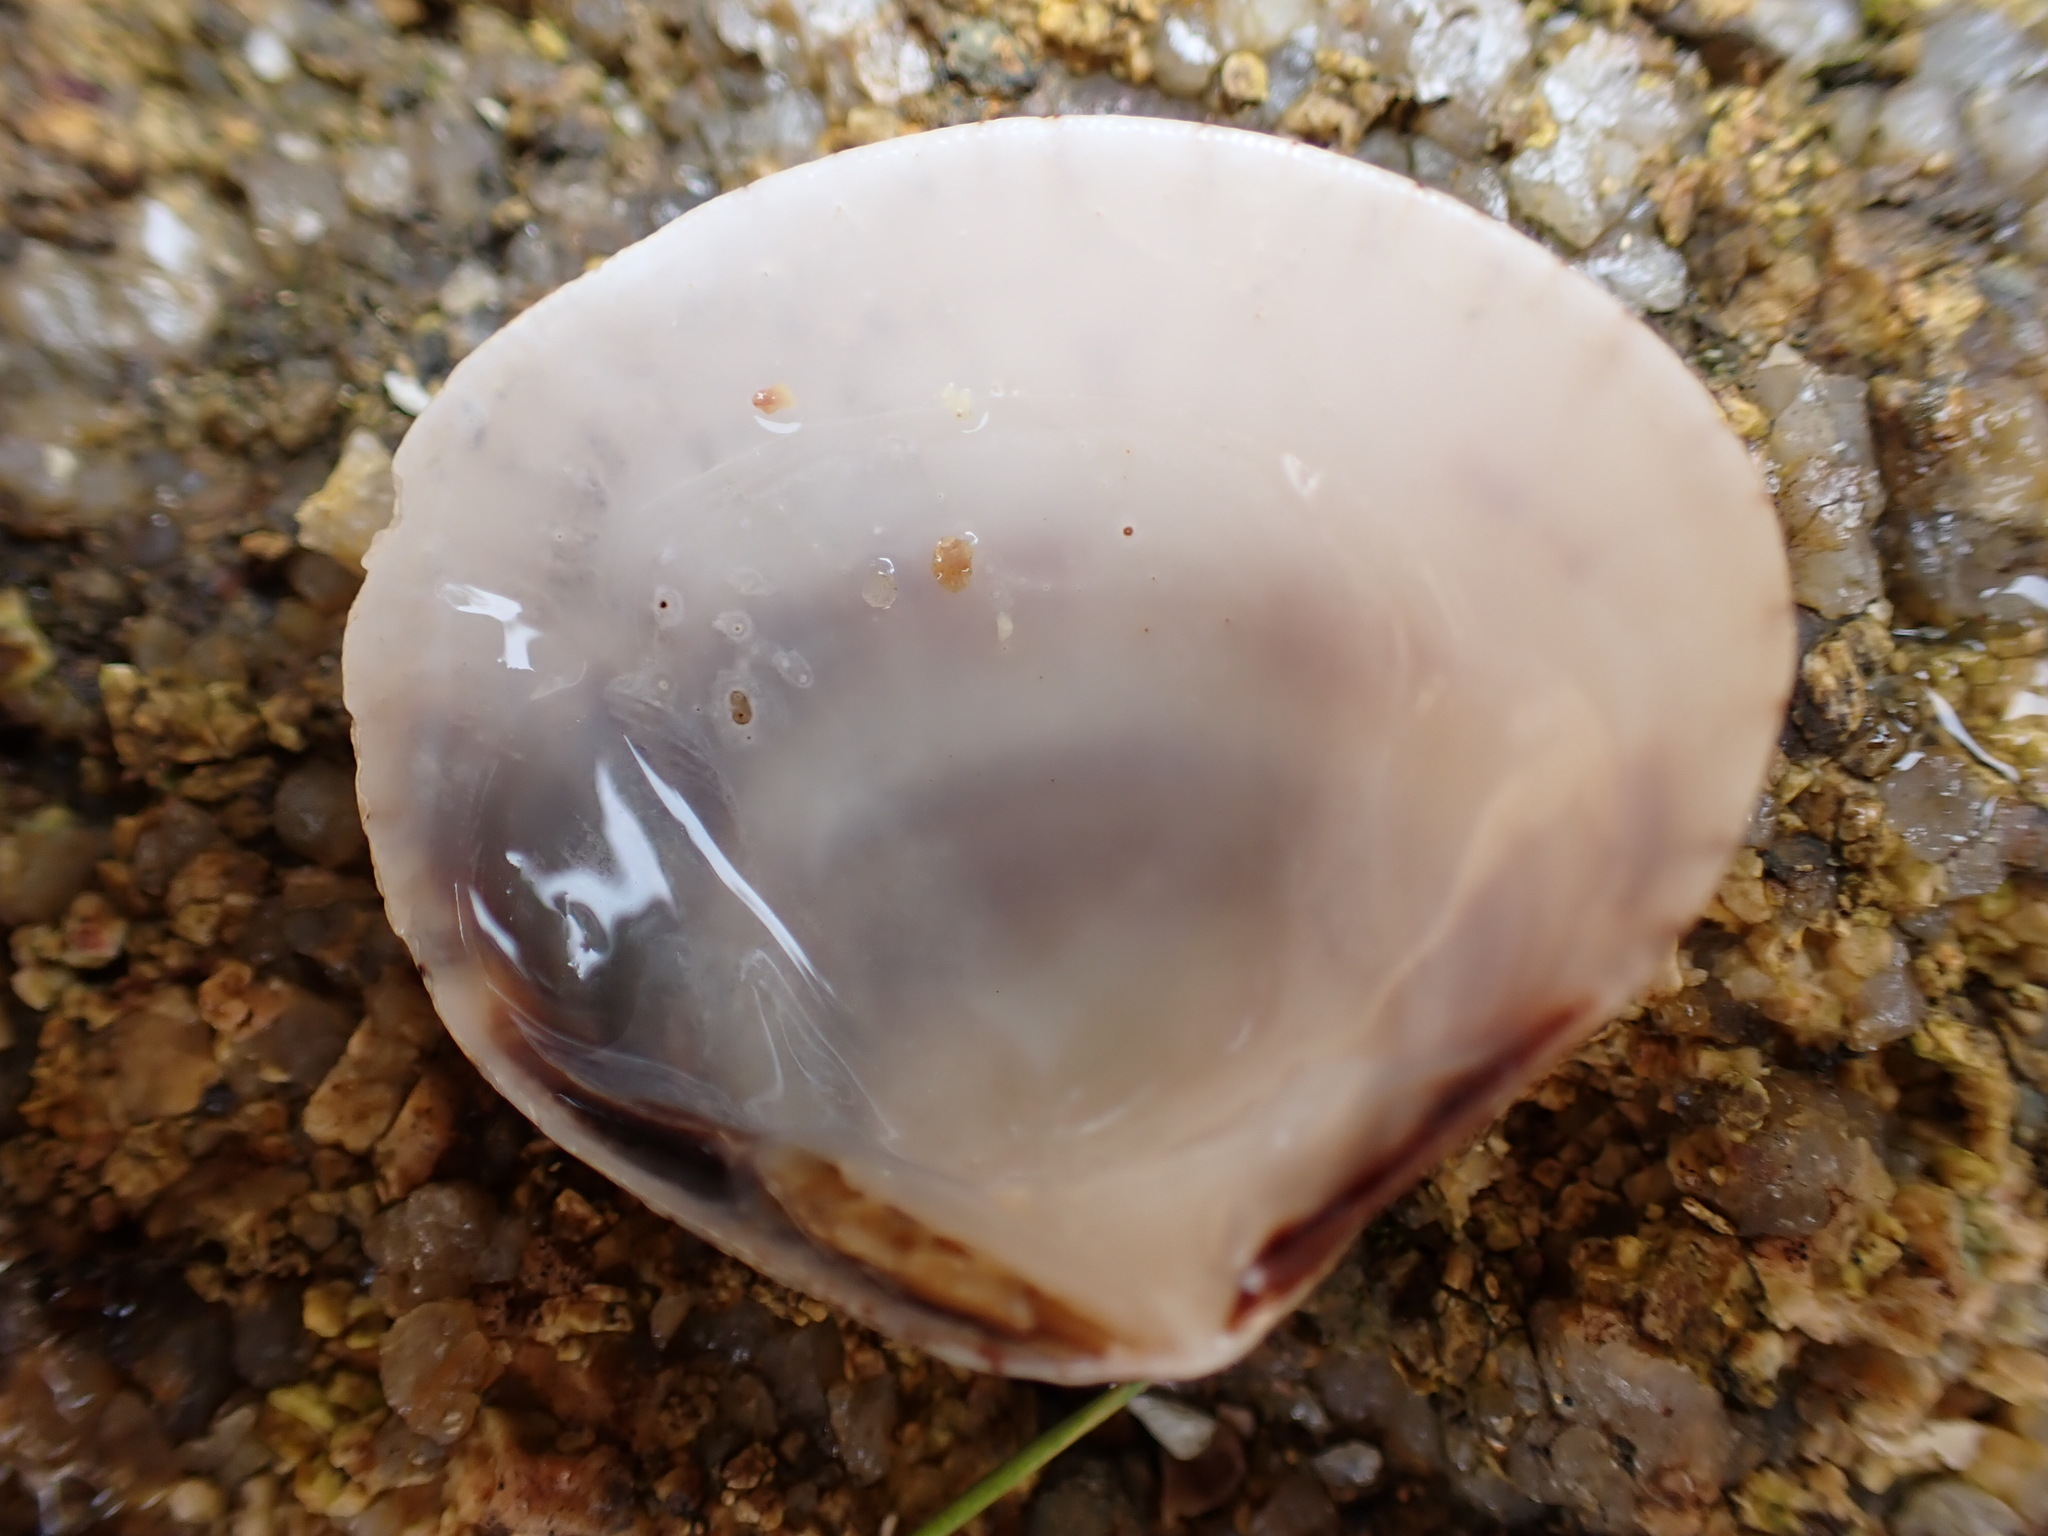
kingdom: Animalia
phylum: Mollusca
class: Bivalvia
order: Venerida
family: Veneridae
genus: Gafrarium
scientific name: Gafrarium divaricatum
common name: Forked venus
